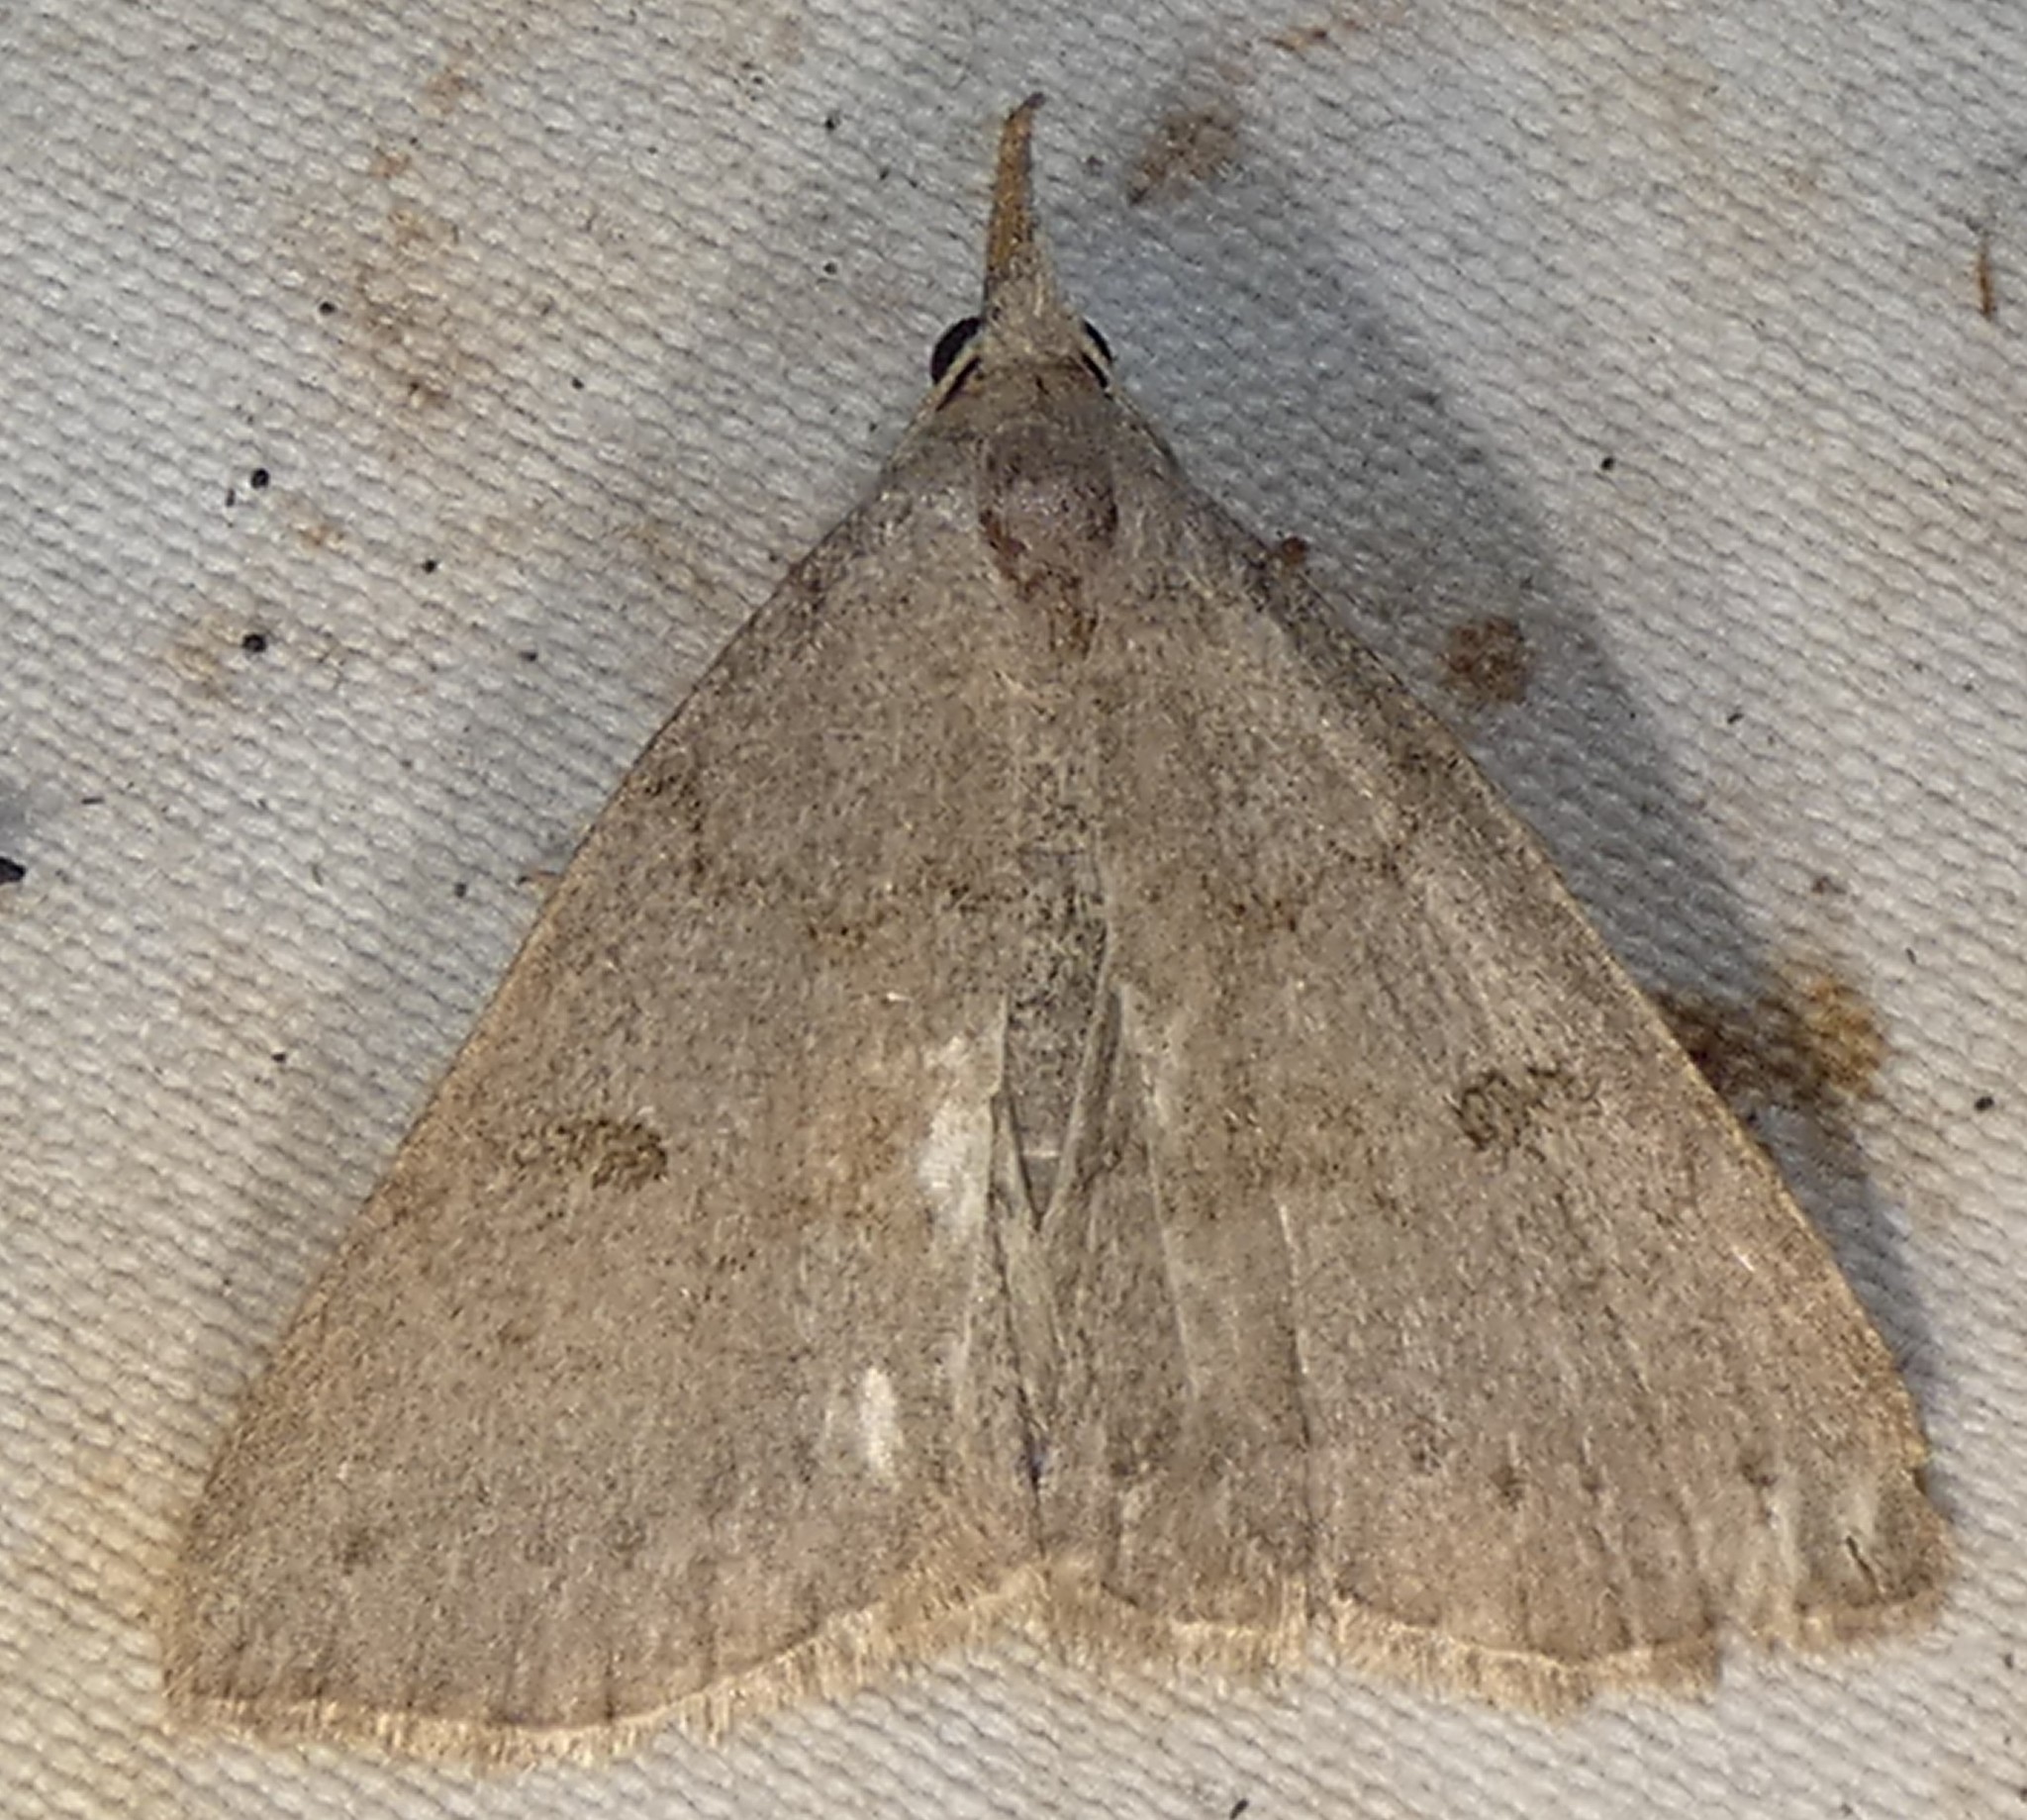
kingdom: Animalia
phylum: Arthropoda
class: Insecta
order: Lepidoptera
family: Erebidae
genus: Macrochilo
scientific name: Macrochilo morbidalis
